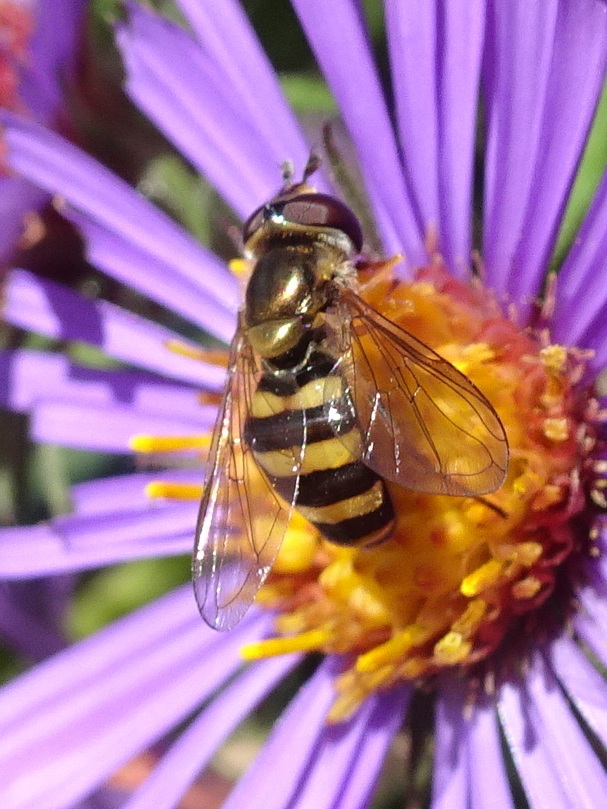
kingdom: Animalia
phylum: Arthropoda
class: Insecta
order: Diptera
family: Syrphidae
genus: Eupeodes
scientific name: Eupeodes
